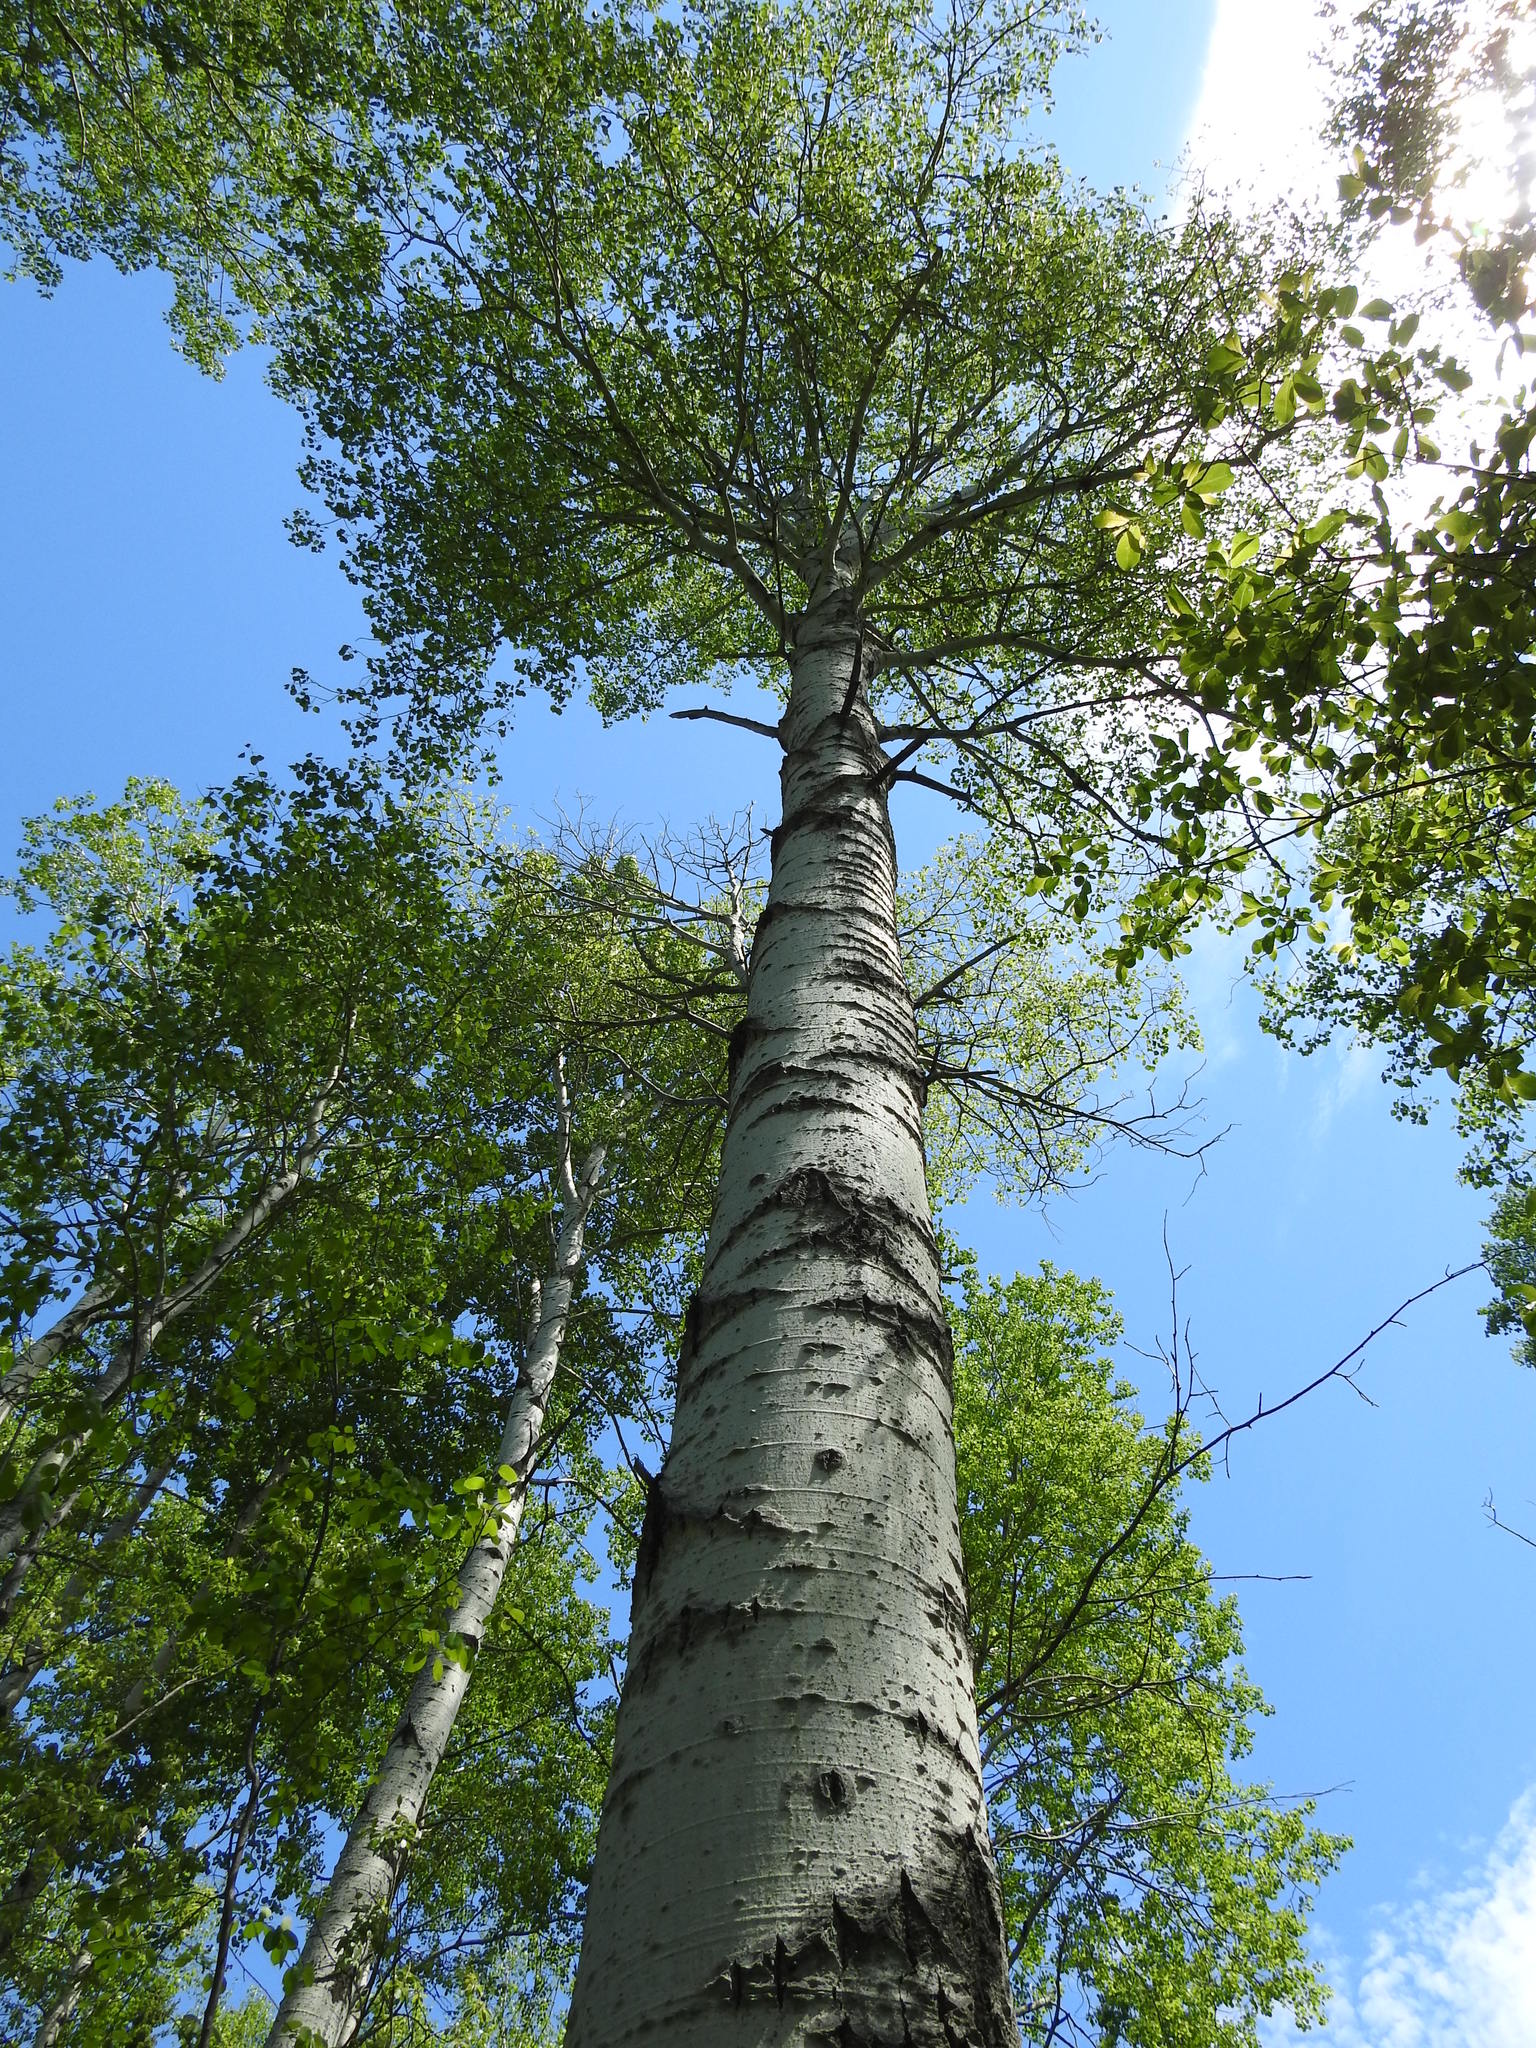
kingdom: Plantae
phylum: Tracheophyta
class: Magnoliopsida
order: Malpighiales
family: Salicaceae
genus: Populus
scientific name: Populus tremuloides
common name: Quaking aspen
